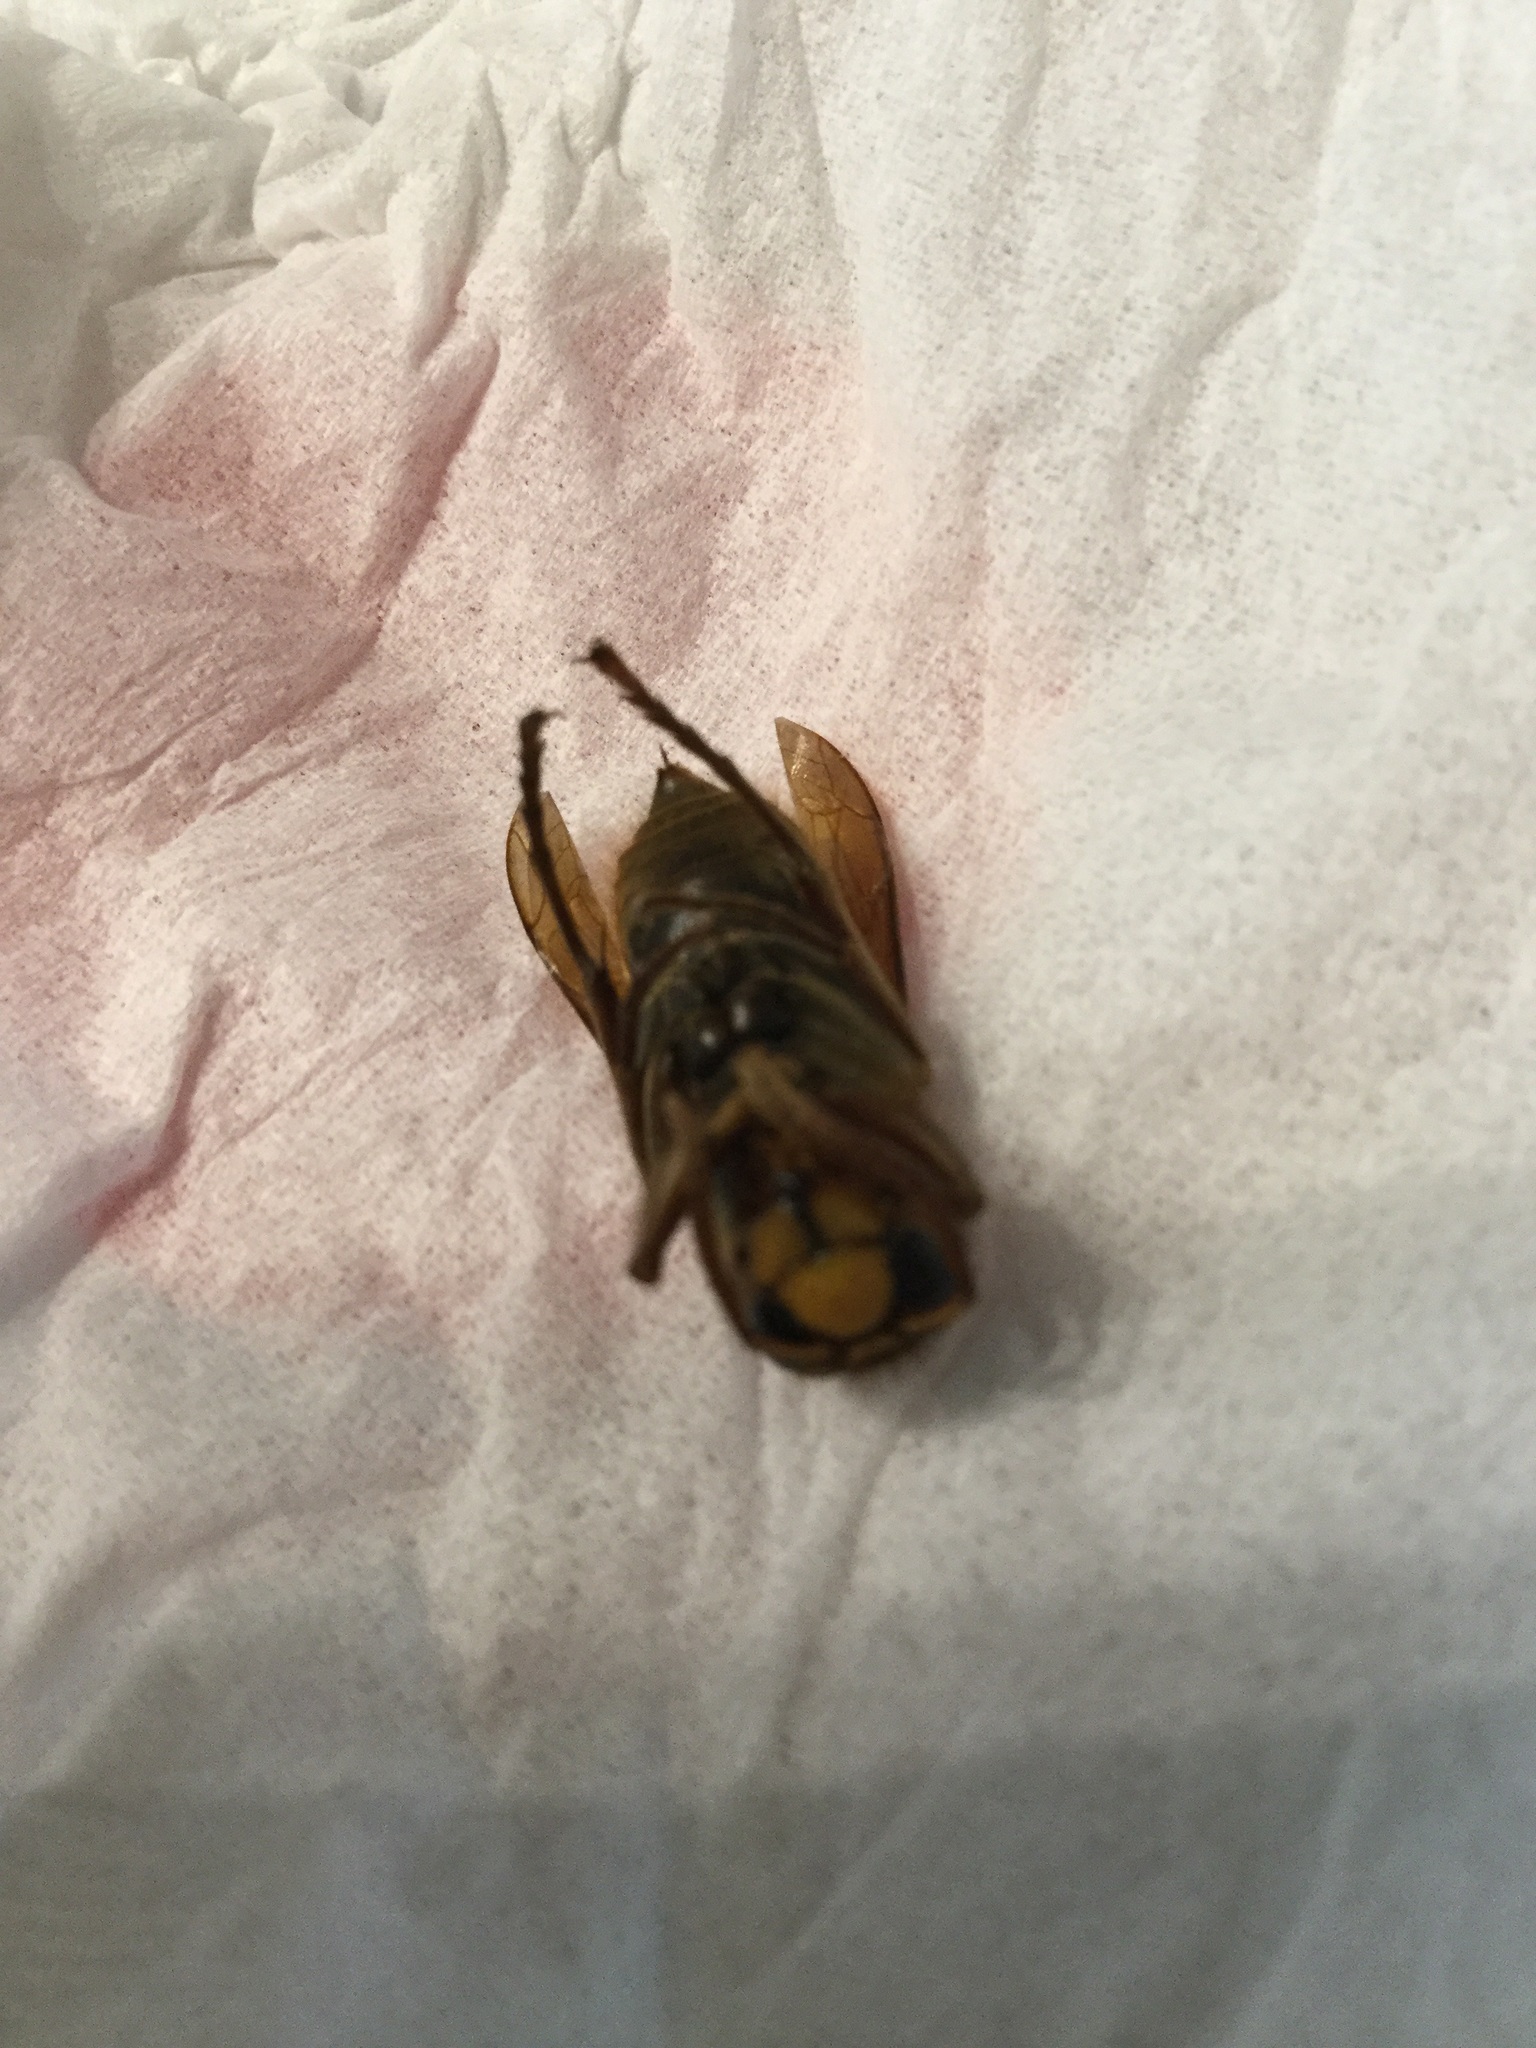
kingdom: Animalia
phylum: Arthropoda
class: Insecta
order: Hymenoptera
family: Vespidae
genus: Vespa
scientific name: Vespa crabro
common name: Hornet
